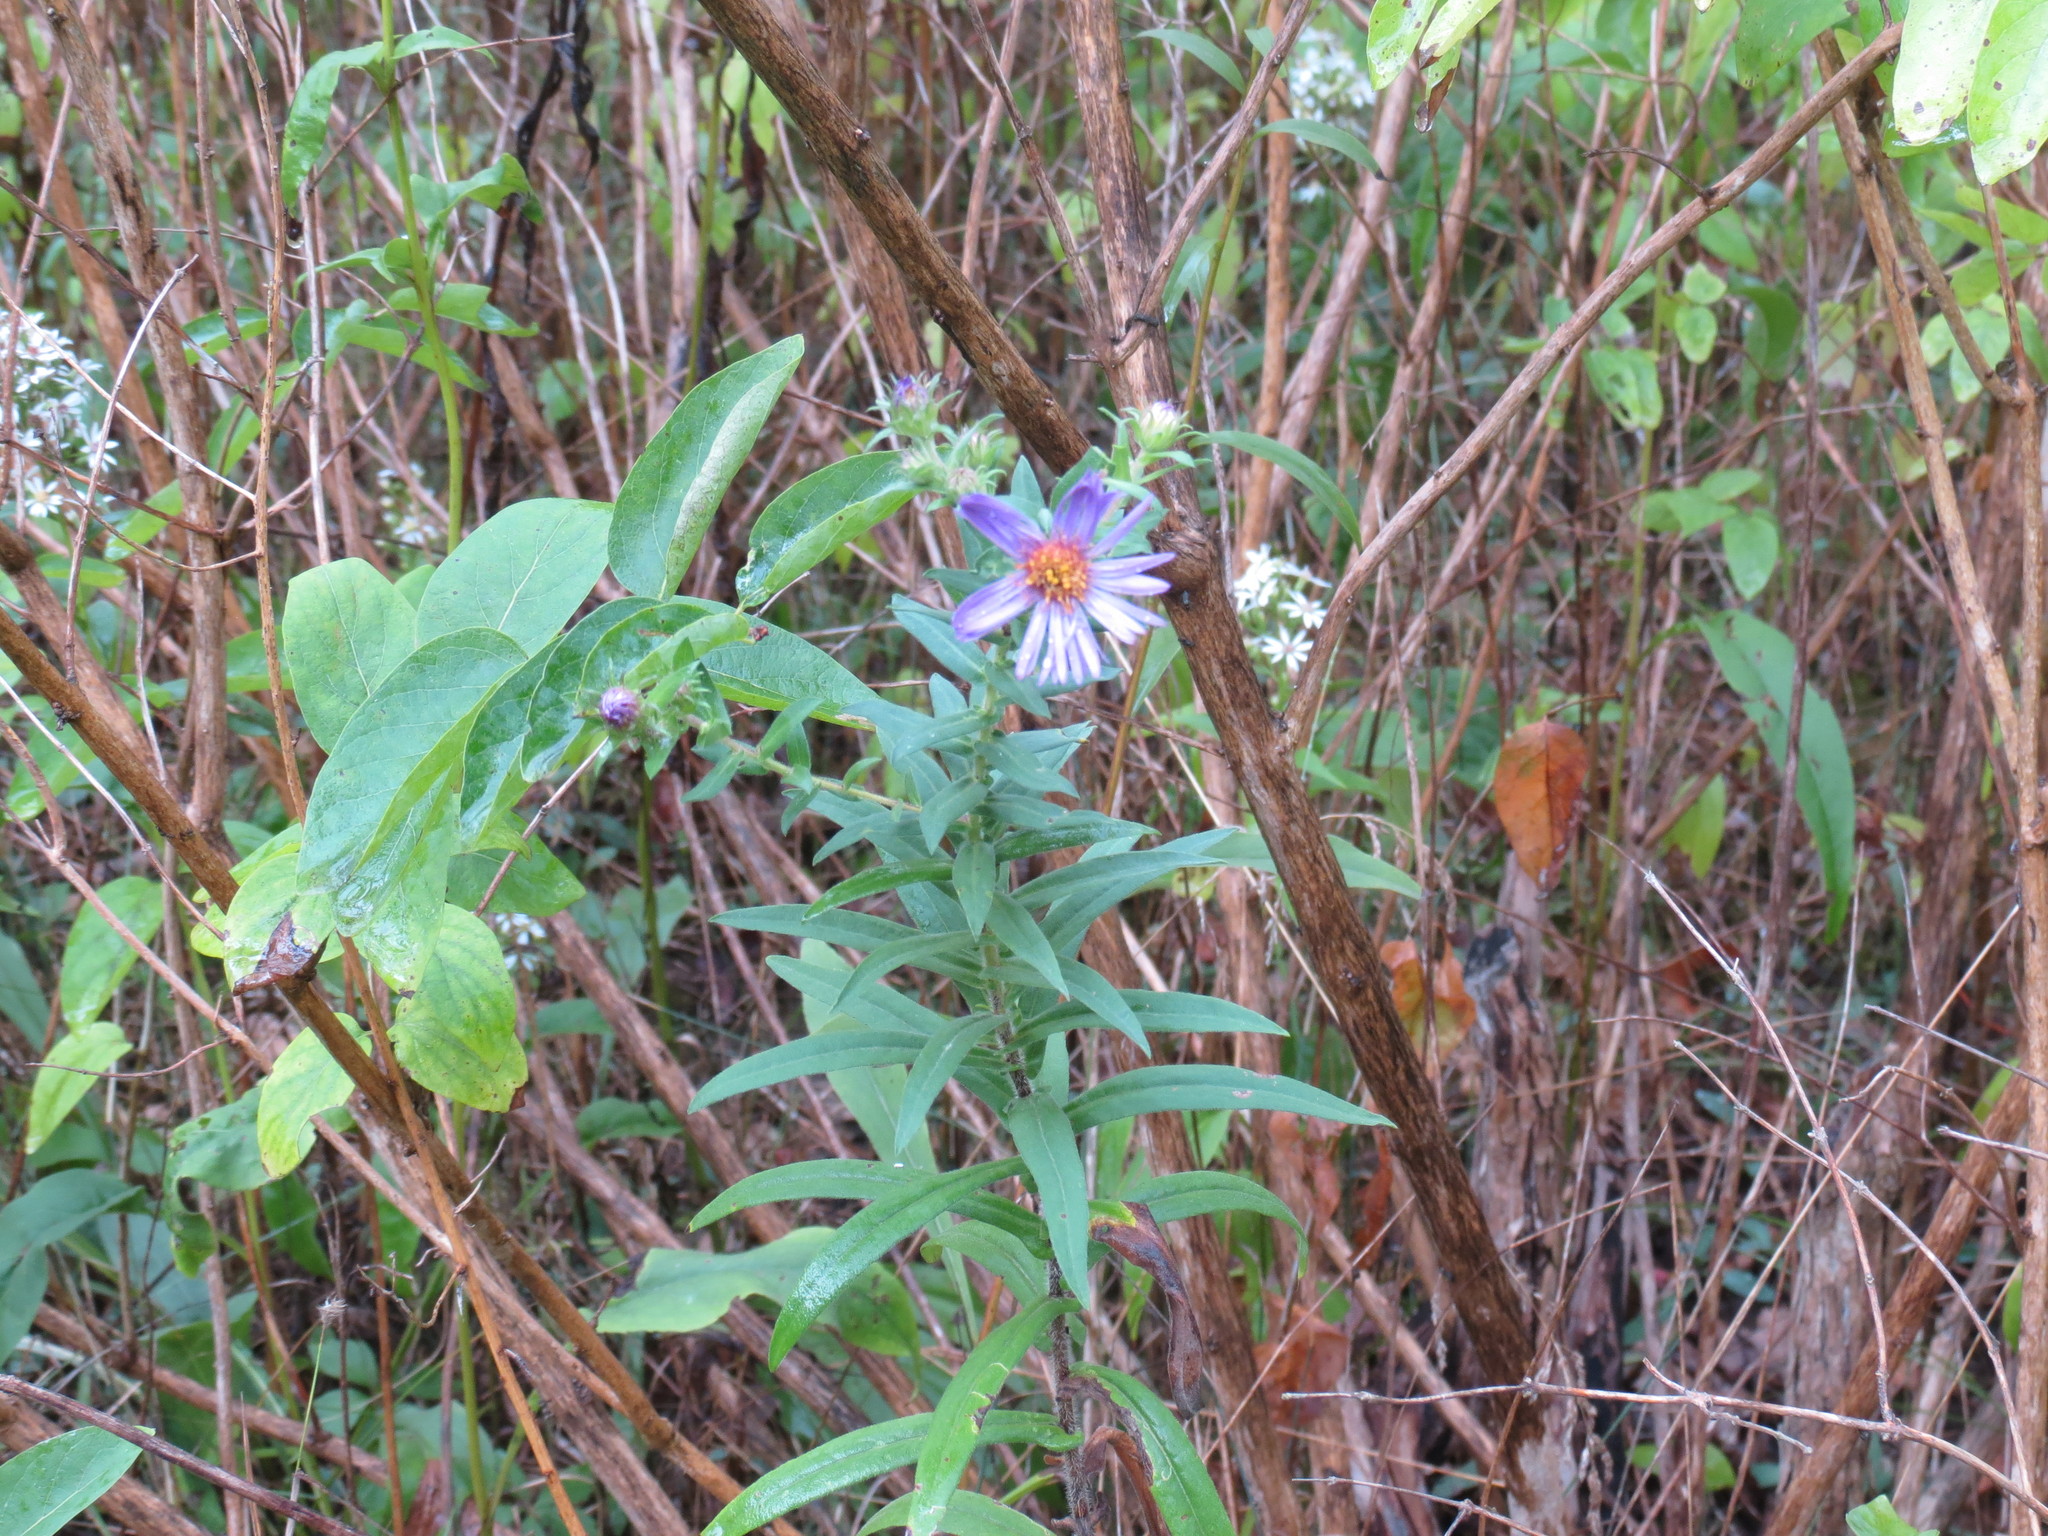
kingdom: Plantae
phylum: Tracheophyta
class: Magnoliopsida
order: Asterales
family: Asteraceae
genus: Symphyotrichum
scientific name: Symphyotrichum novae-angliae
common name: Michaelmas daisy
